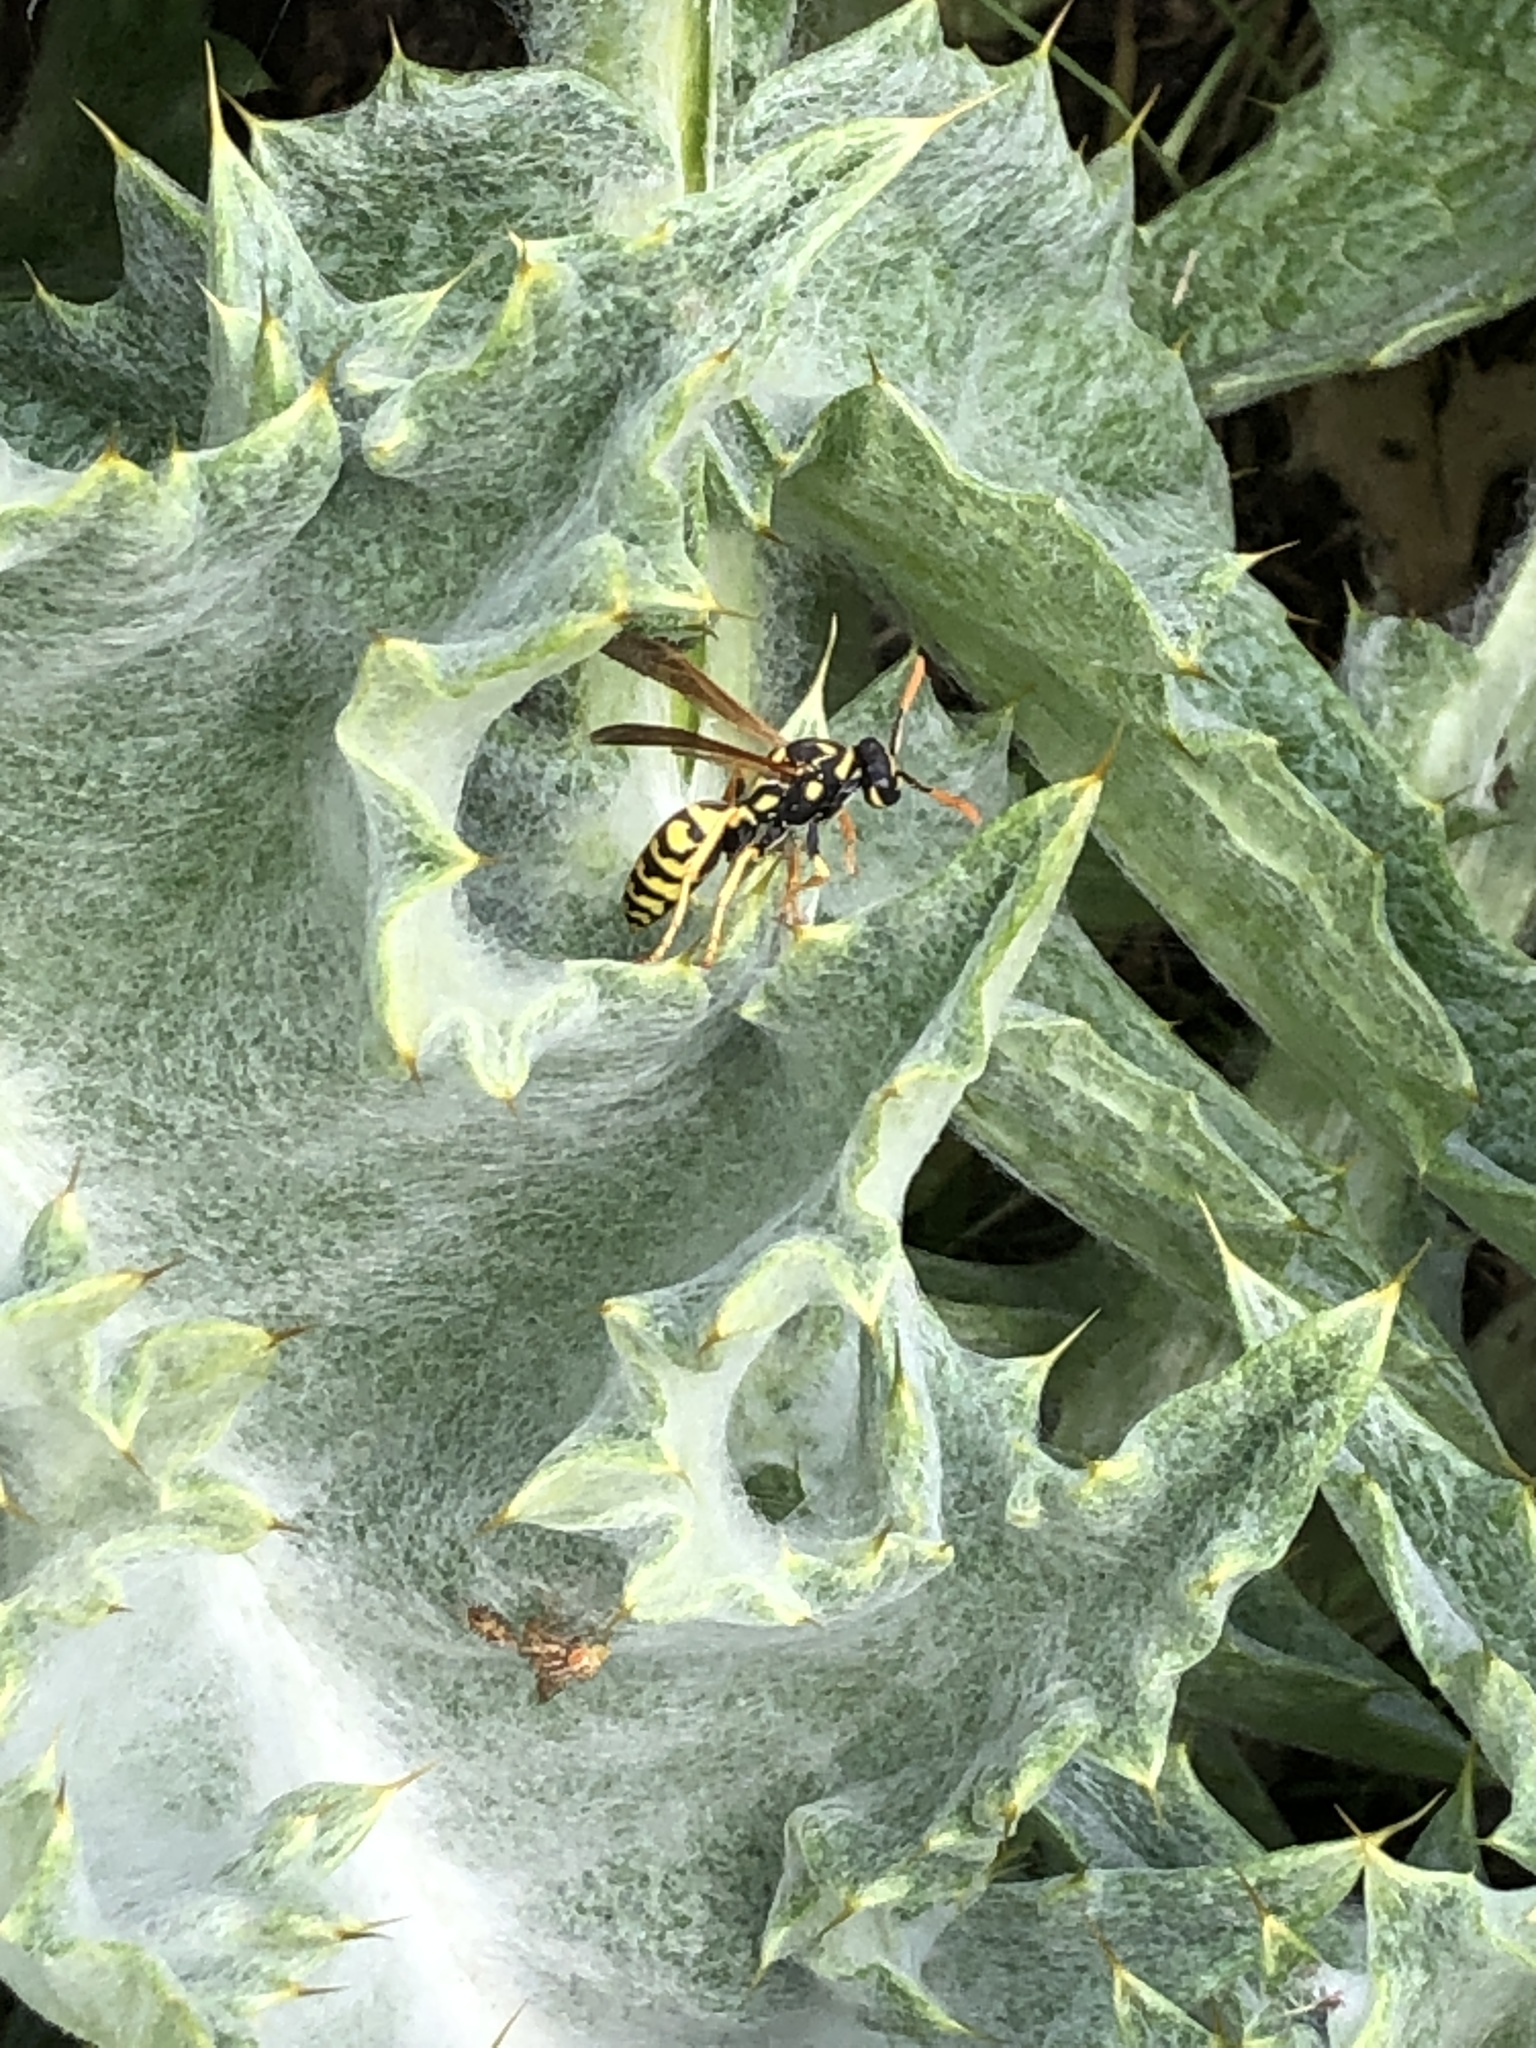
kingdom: Animalia
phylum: Arthropoda
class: Insecta
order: Hymenoptera
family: Eumenidae
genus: Polistes
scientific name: Polistes dominula
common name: Paper wasp
